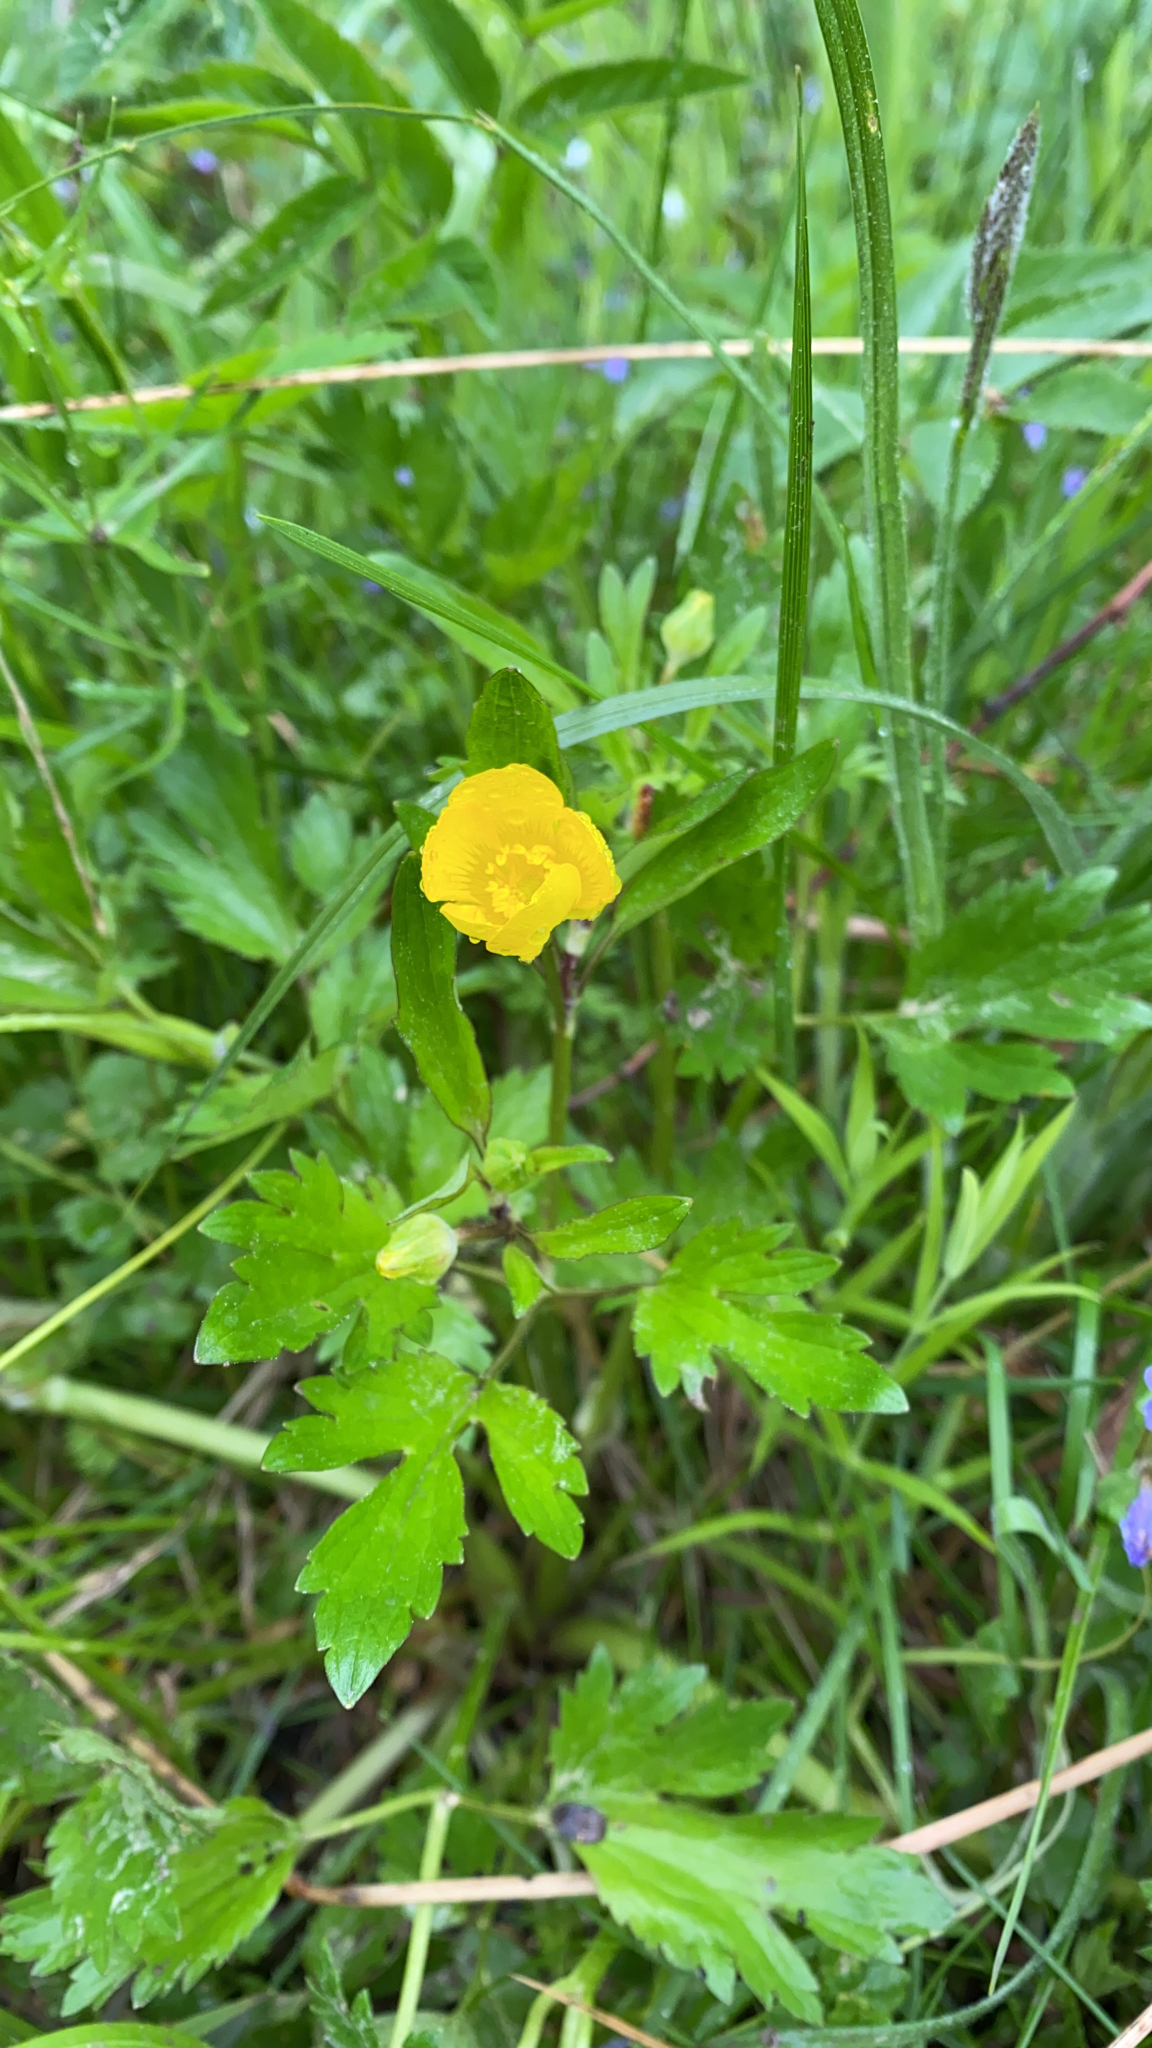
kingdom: Plantae
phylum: Tracheophyta
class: Magnoliopsida
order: Ranunculales
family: Ranunculaceae
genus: Ranunculus
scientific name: Ranunculus repens
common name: Creeping buttercup
